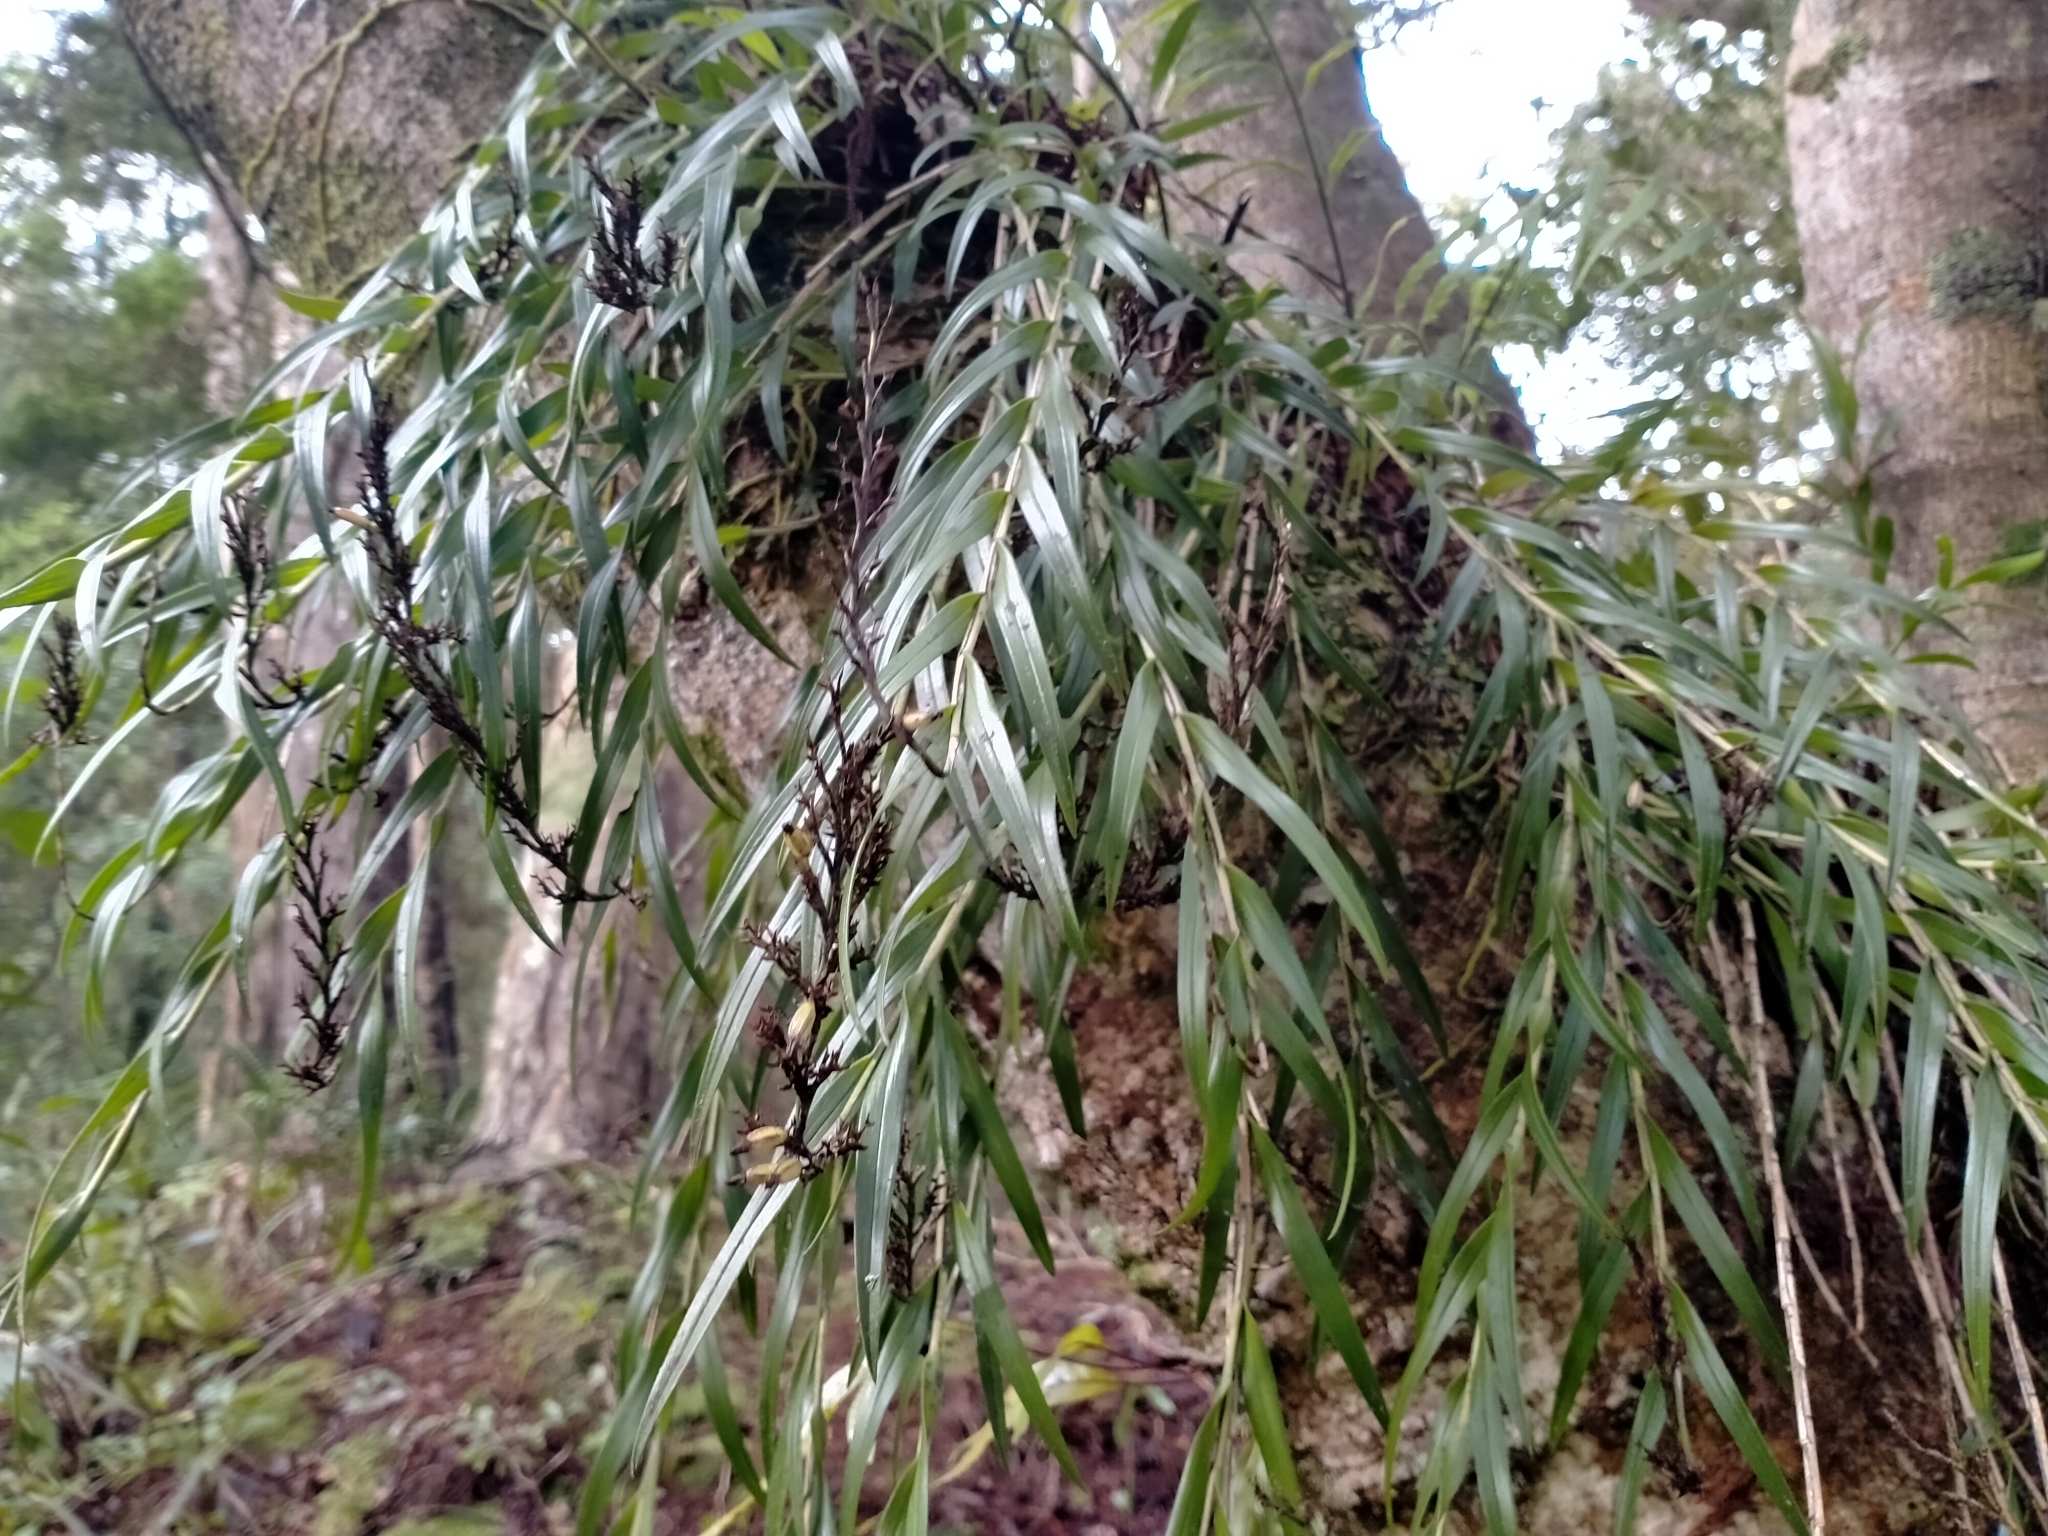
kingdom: Plantae
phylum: Tracheophyta
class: Liliopsida
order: Asparagales
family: Orchidaceae
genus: Earina
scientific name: Earina autumnalis
